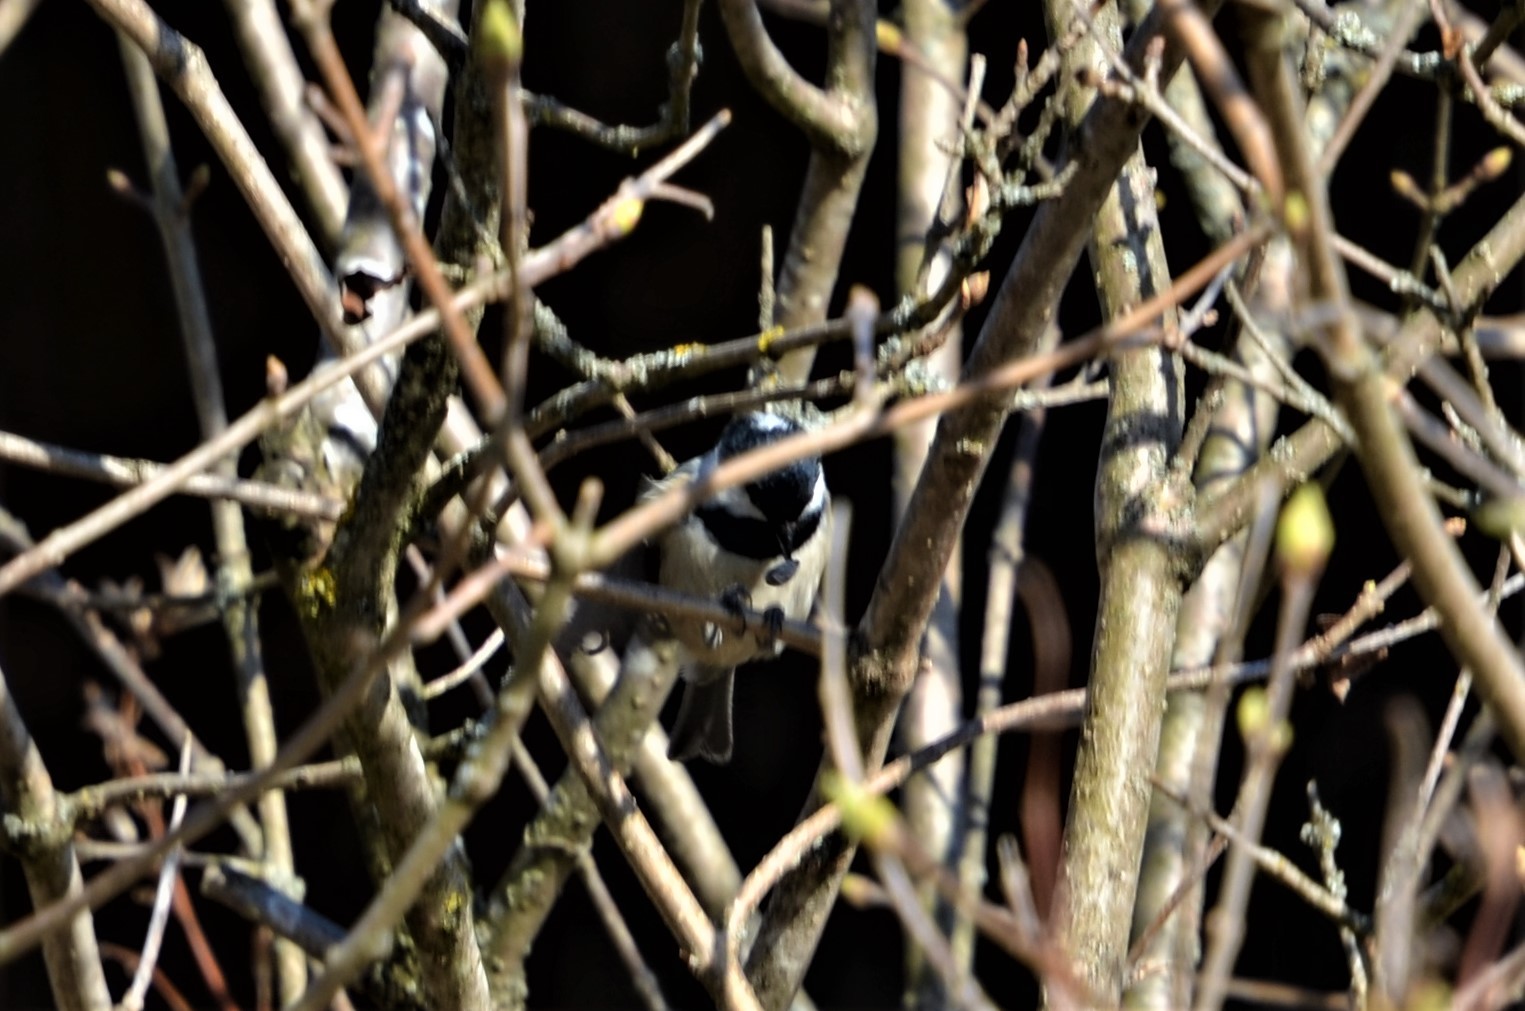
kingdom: Animalia
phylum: Chordata
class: Aves
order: Passeriformes
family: Paridae
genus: Periparus
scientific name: Periparus ater
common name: Coal tit
